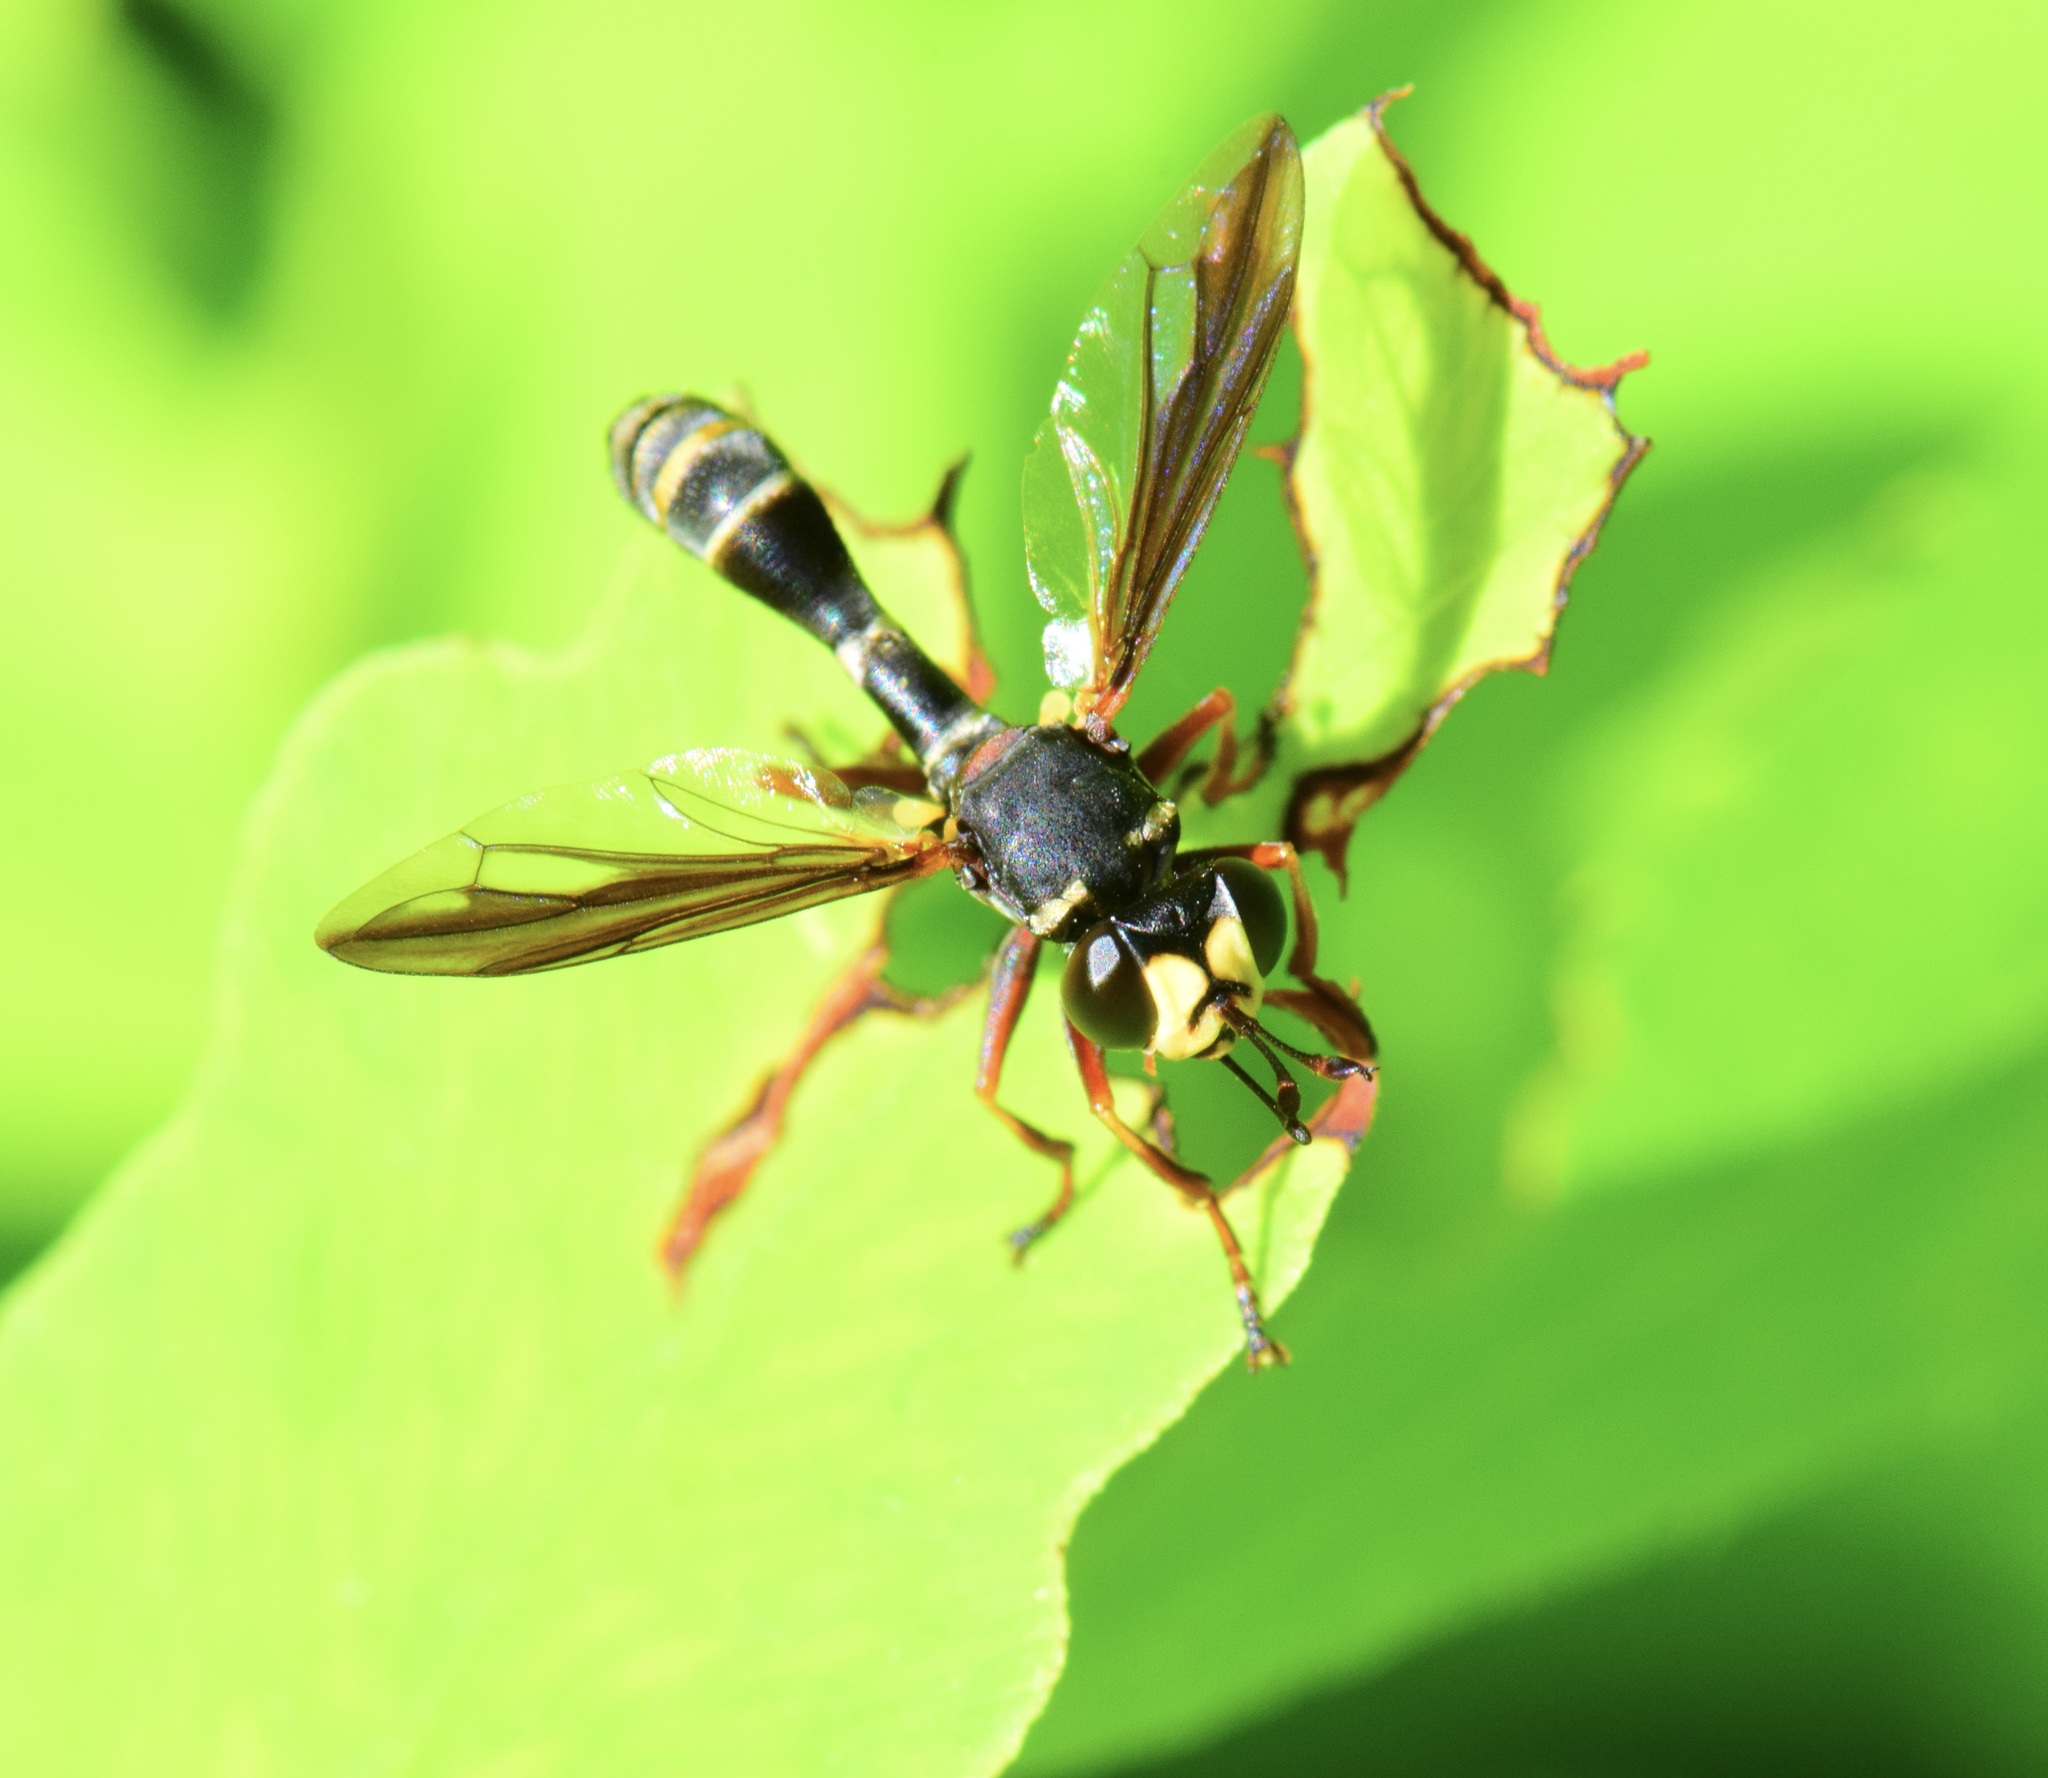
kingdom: Animalia
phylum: Arthropoda
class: Insecta
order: Diptera
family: Conopidae
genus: Physocephala
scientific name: Physocephala marginata
